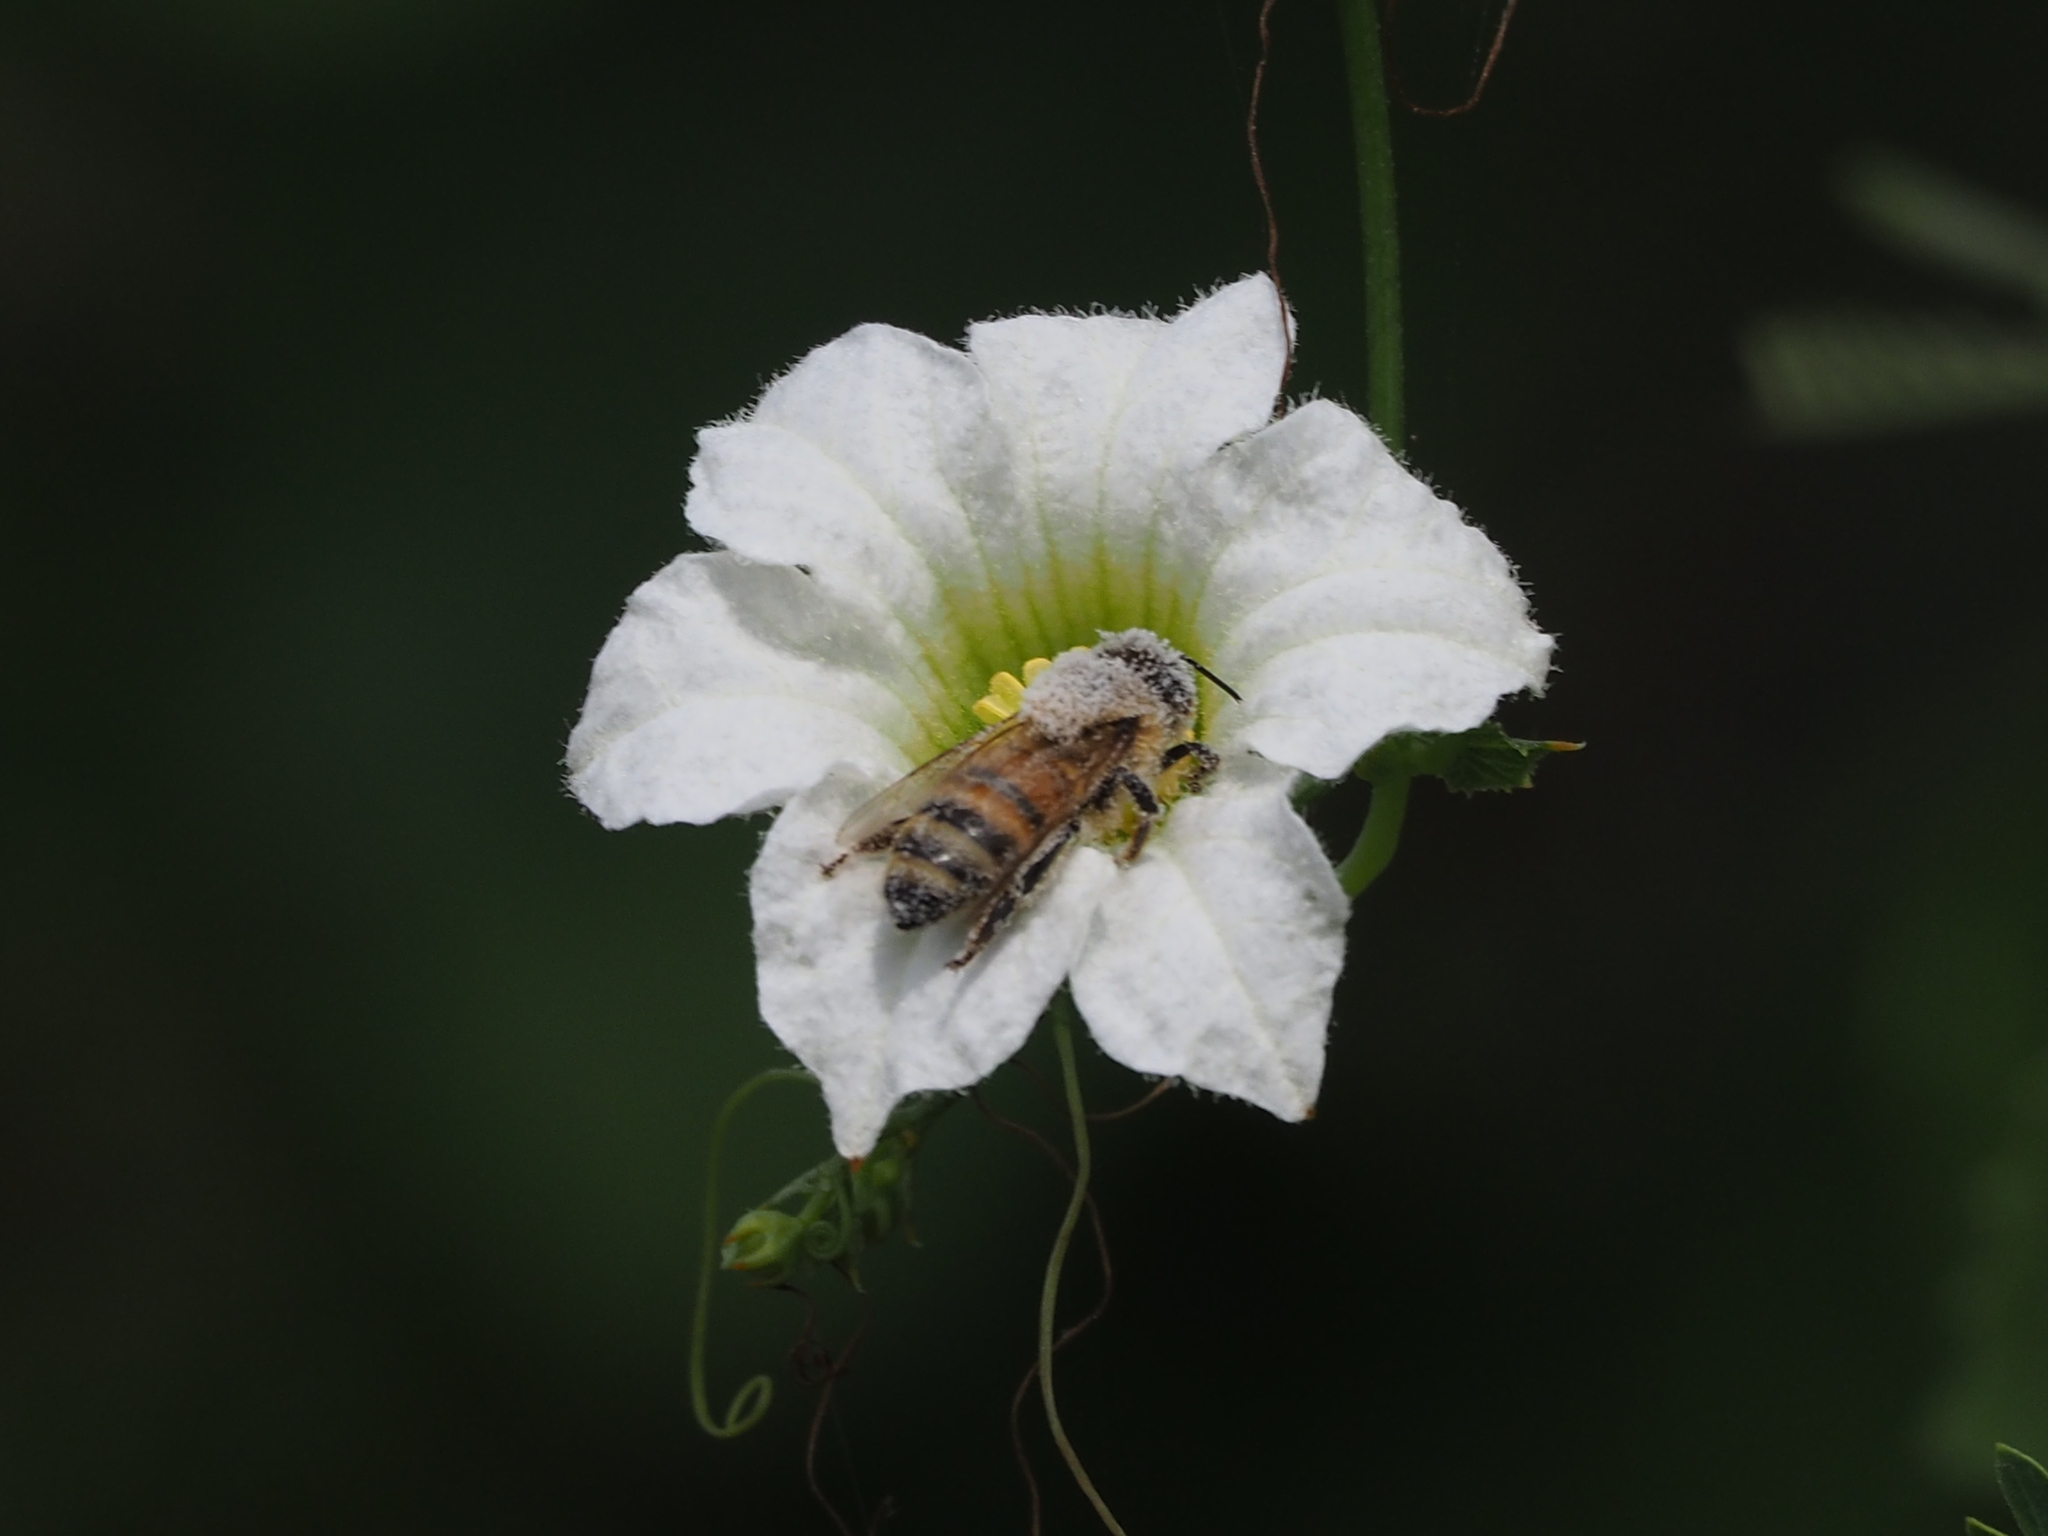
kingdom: Animalia
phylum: Arthropoda
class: Insecta
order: Hymenoptera
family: Apidae
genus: Apis
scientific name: Apis mellifera
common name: Honey bee
